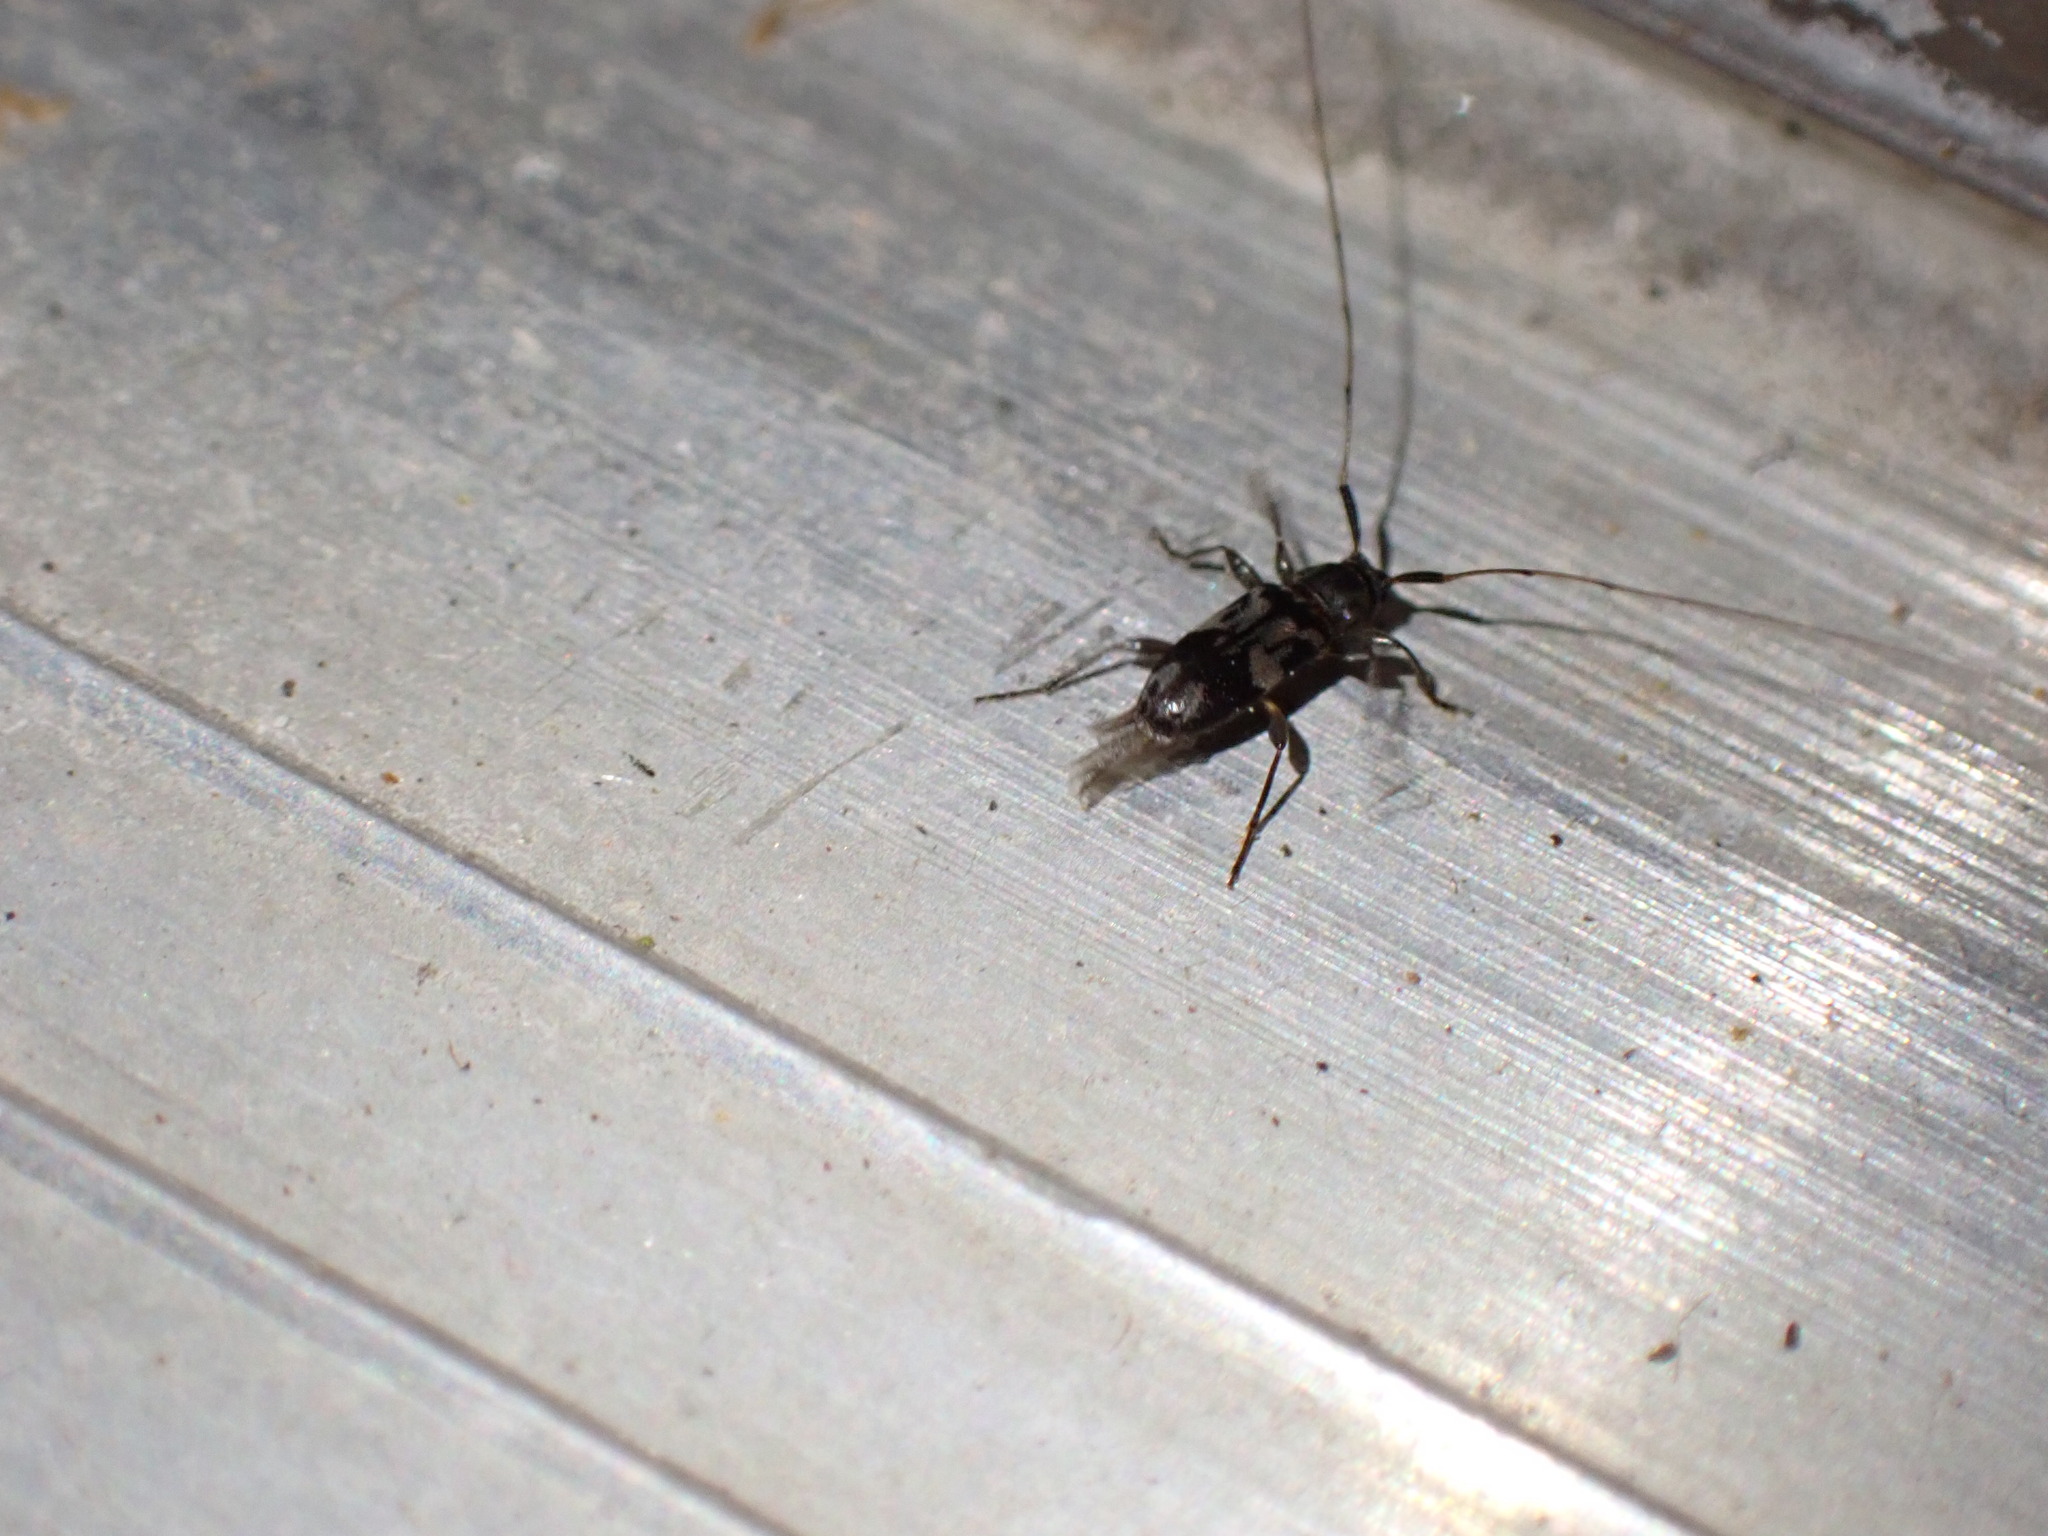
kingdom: Animalia
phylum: Arthropoda
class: Insecta
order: Coleoptera
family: Cerambycidae
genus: Urgleptes
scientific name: Urgleptes querci
